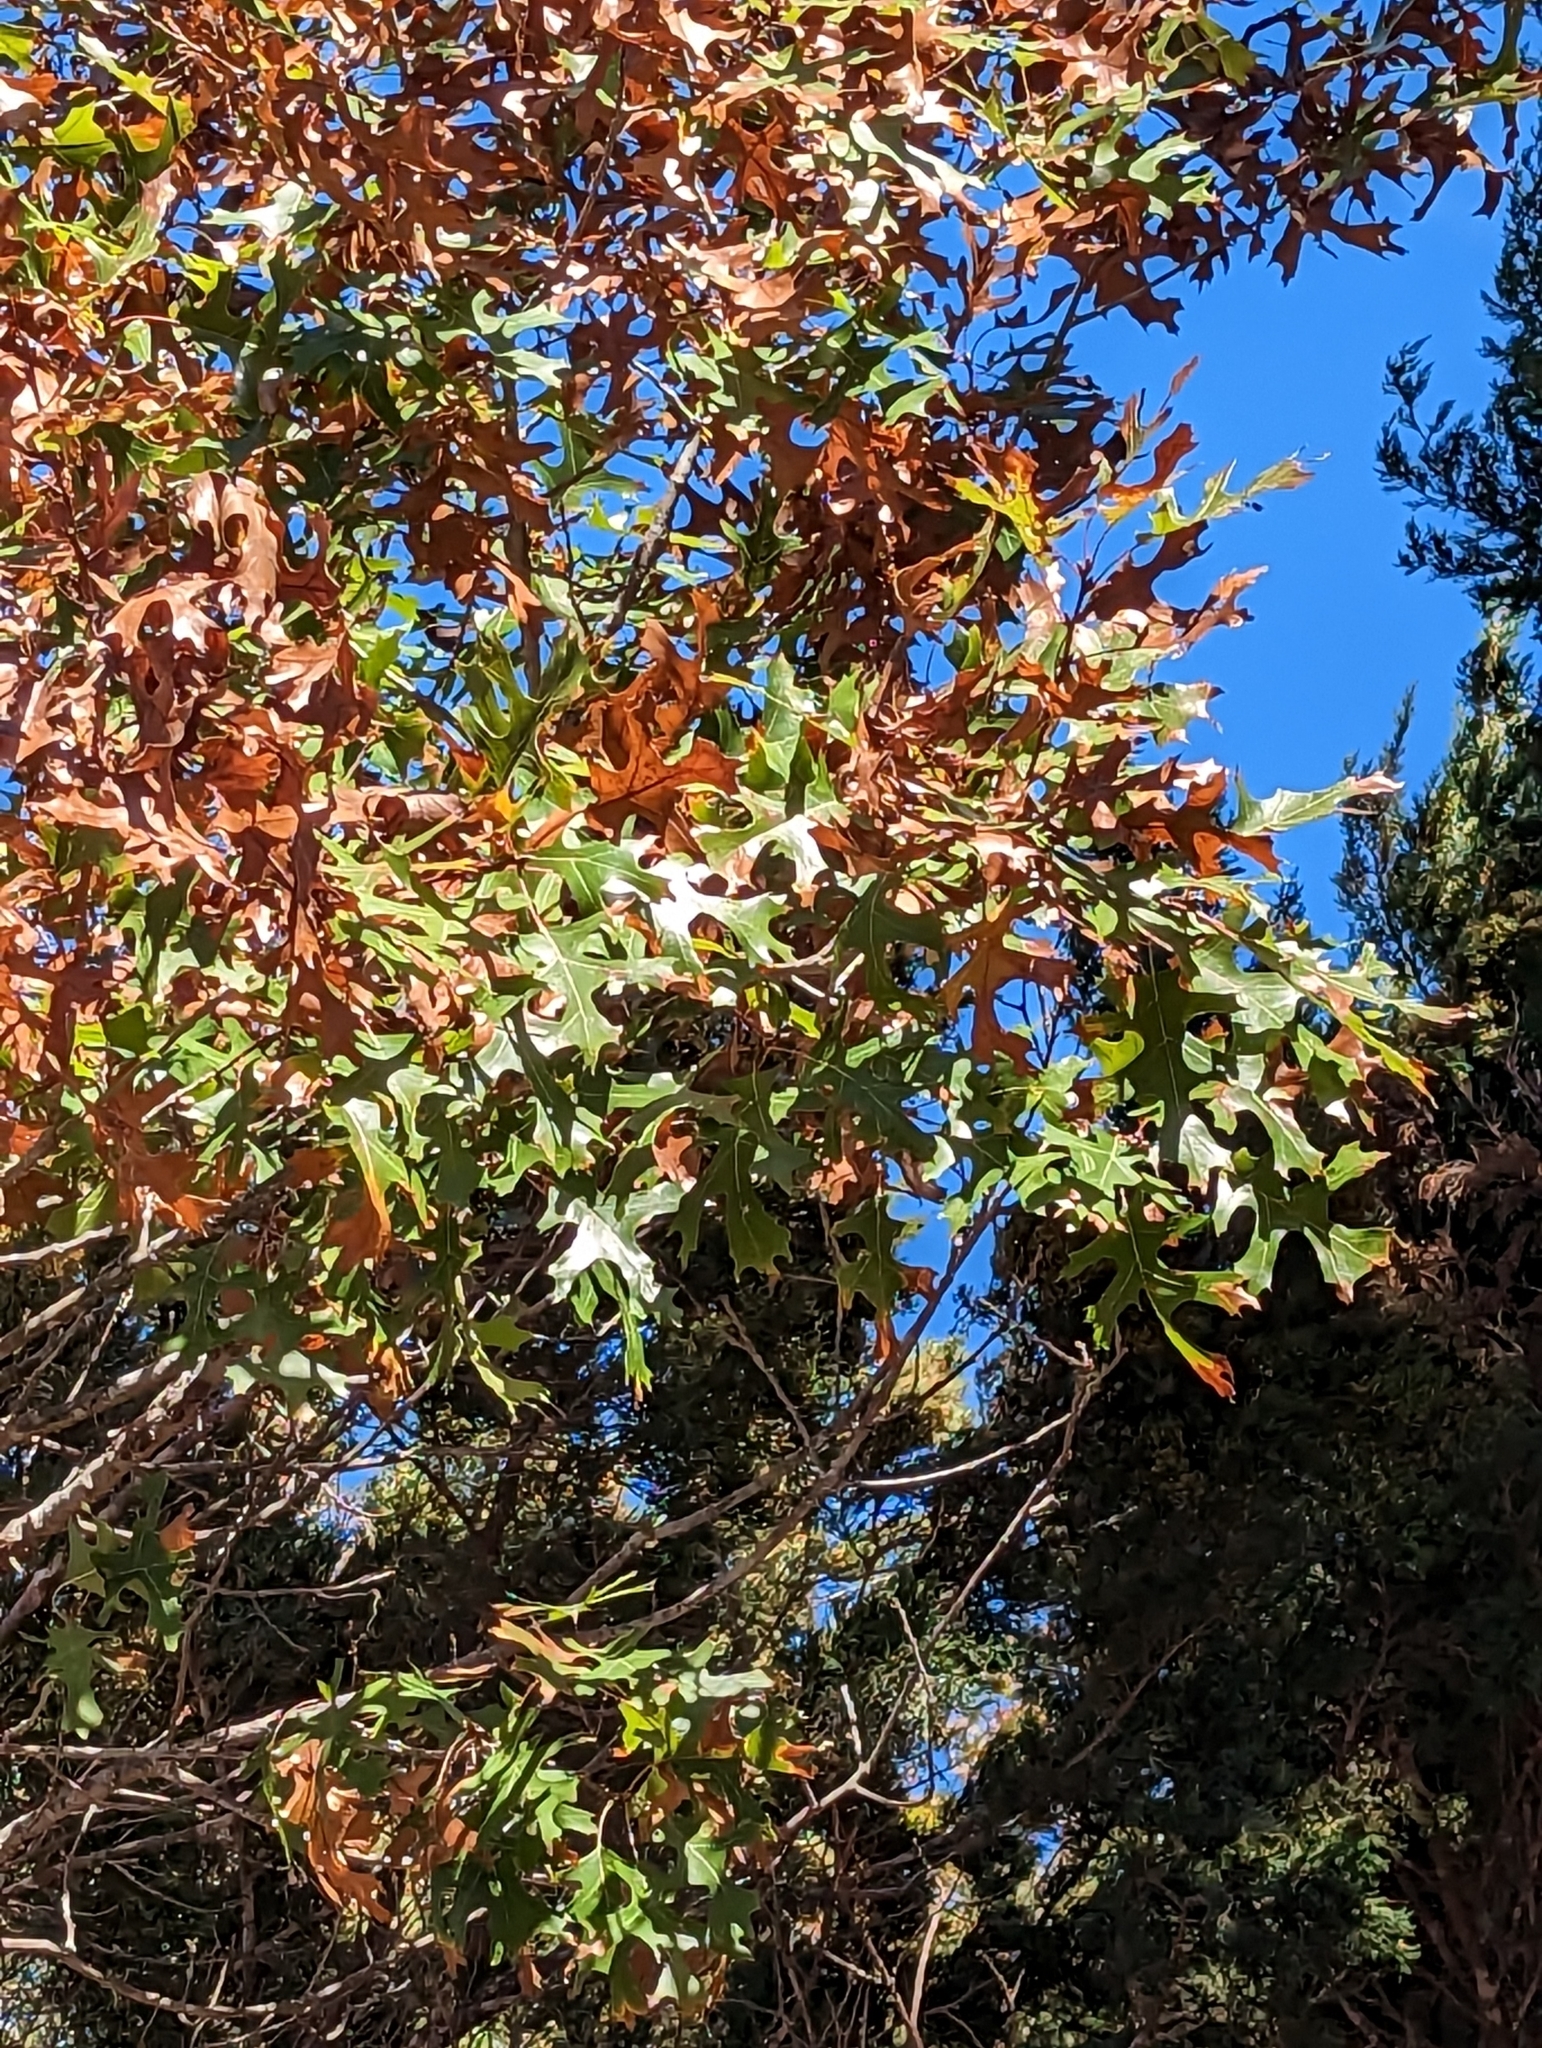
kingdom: Plantae
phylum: Tracheophyta
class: Magnoliopsida
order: Fagales
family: Fagaceae
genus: Quercus
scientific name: Quercus buckleyi
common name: Buckley oak
